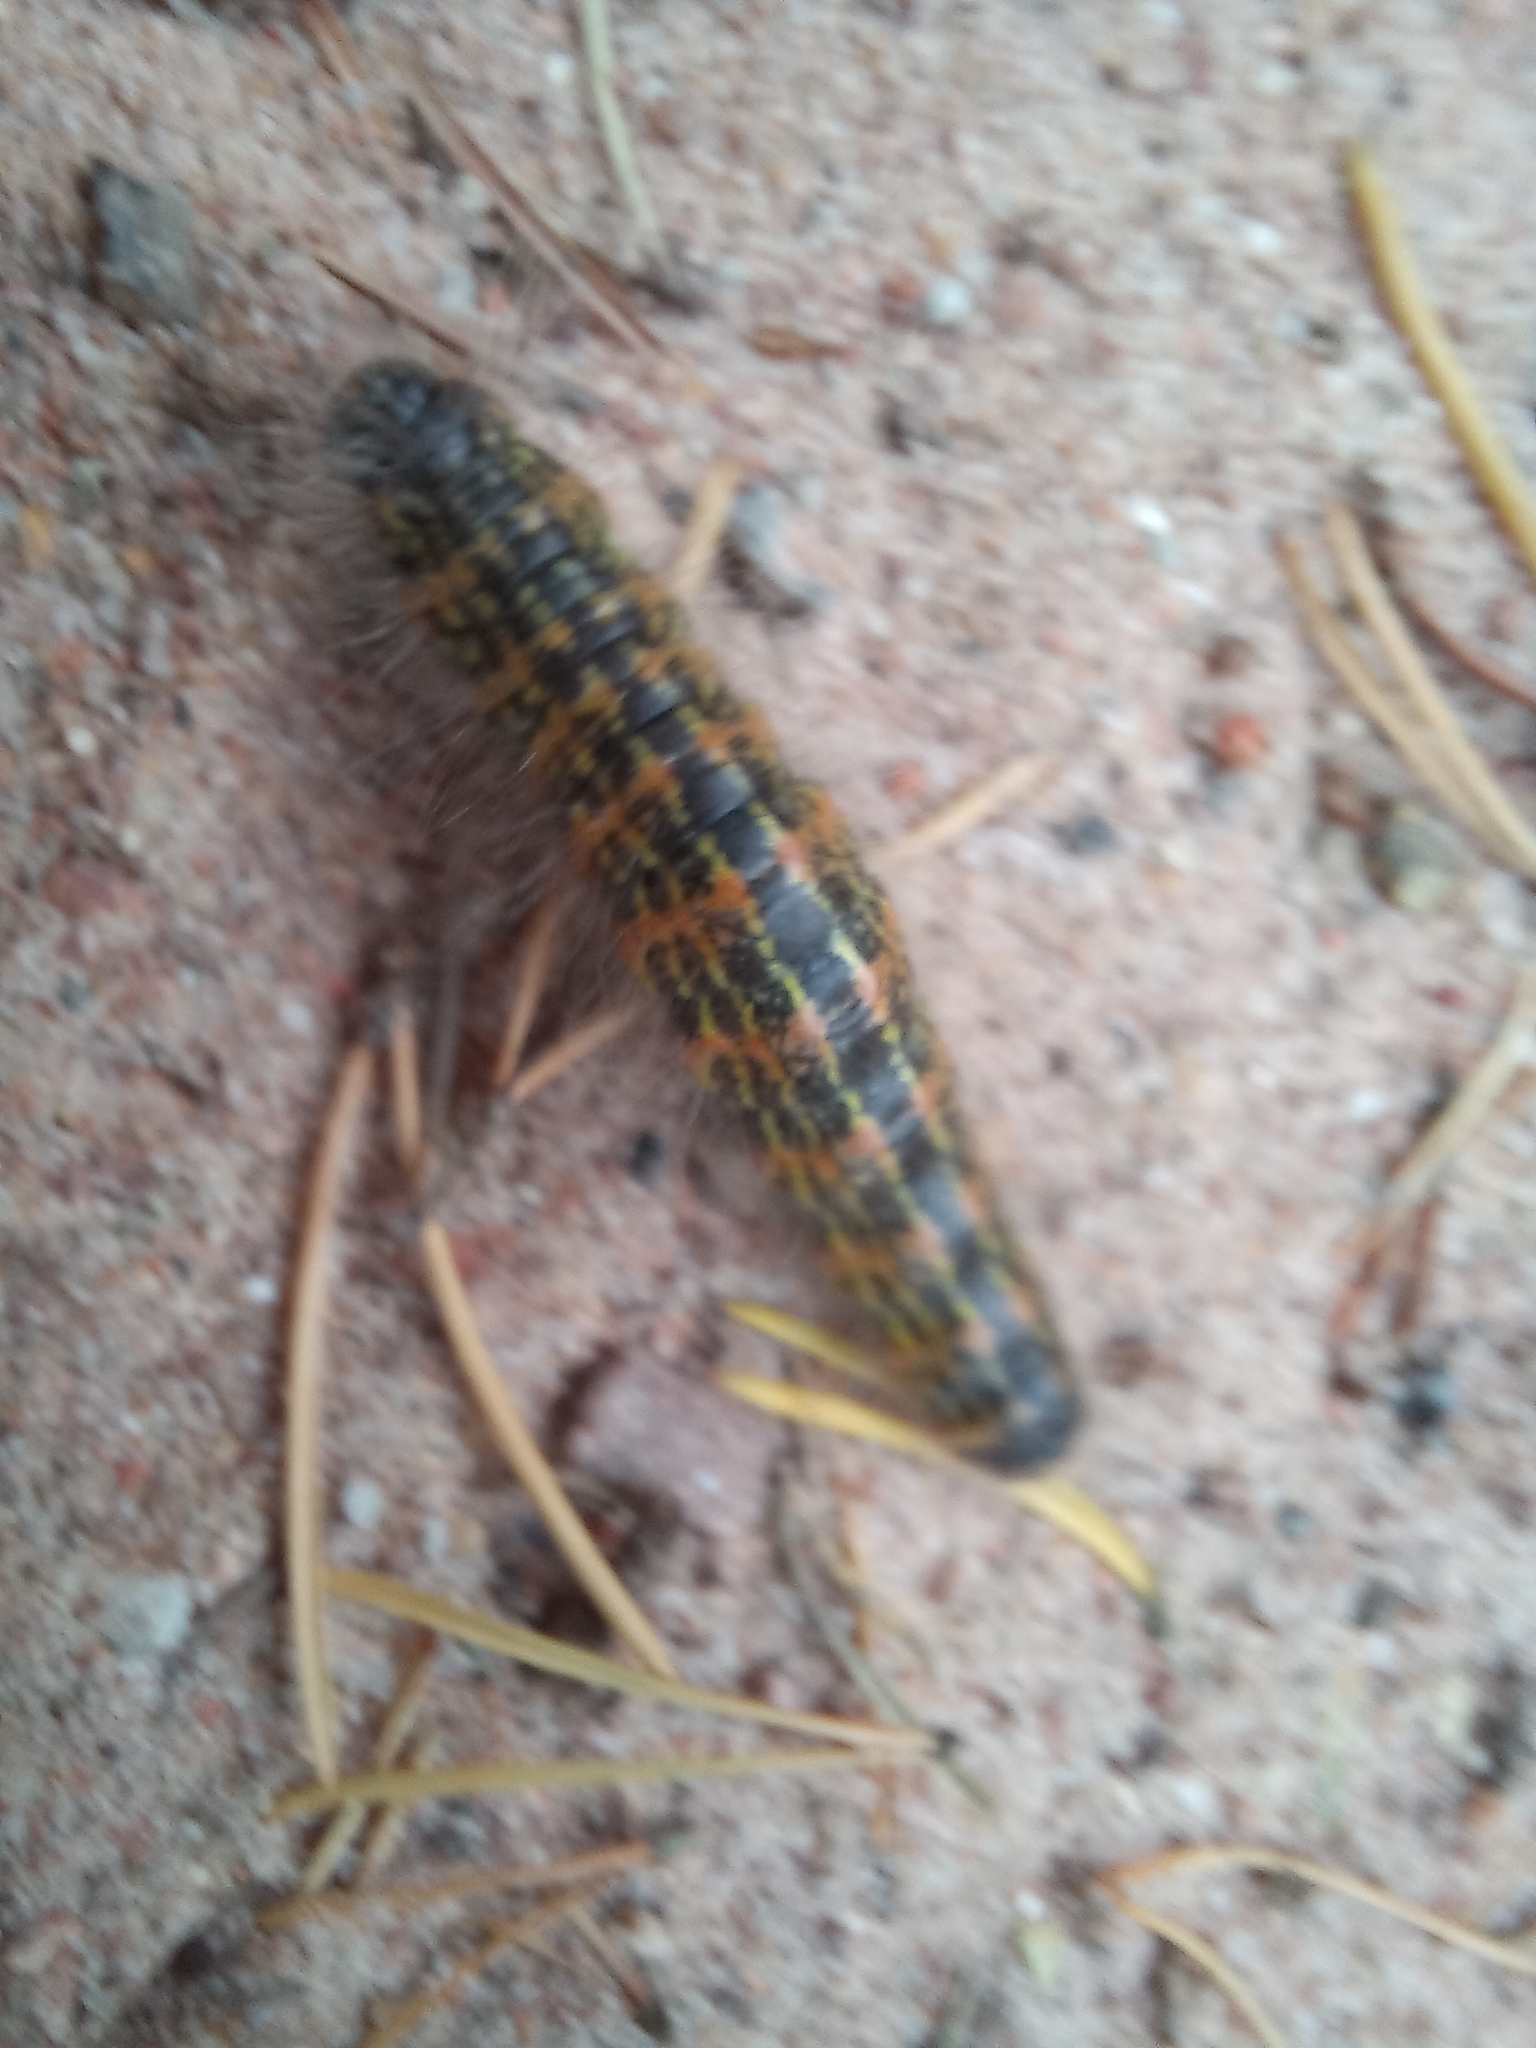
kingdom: Animalia
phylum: Arthropoda
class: Insecta
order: Lepidoptera
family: Notodontidae
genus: Phalera
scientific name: Phalera bucephala
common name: Buff-tip
